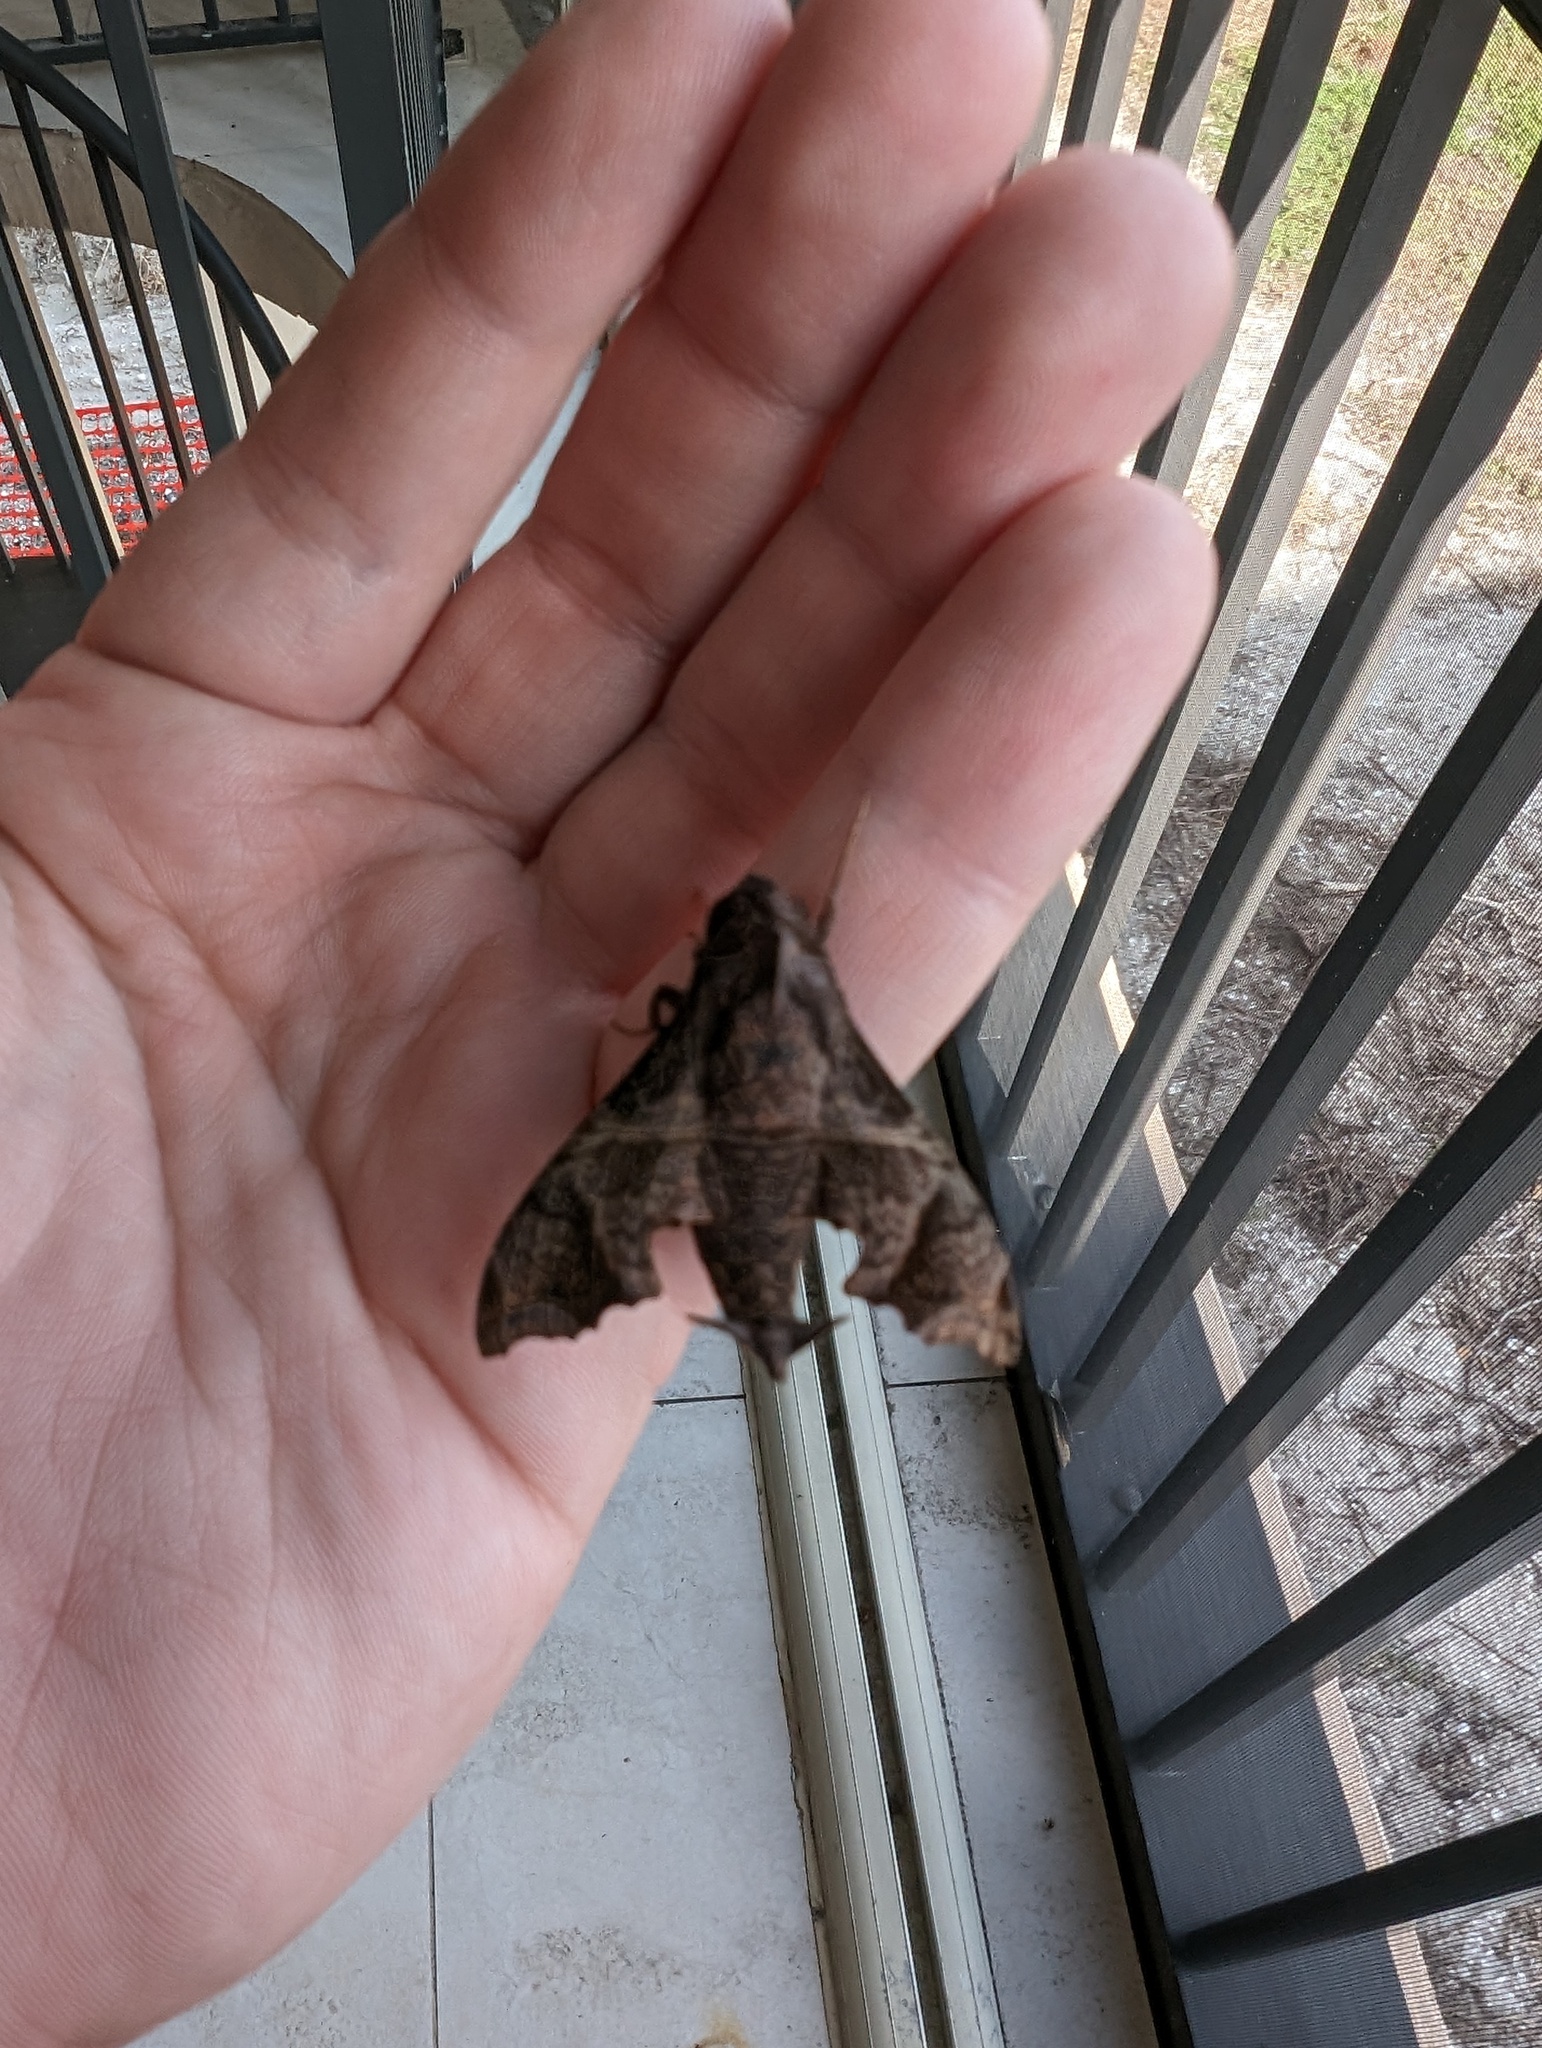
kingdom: Animalia
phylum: Arthropoda
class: Insecta
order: Lepidoptera
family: Sphingidae
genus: Enyo
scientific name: Enyo lugubris
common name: Mournful sphinx
